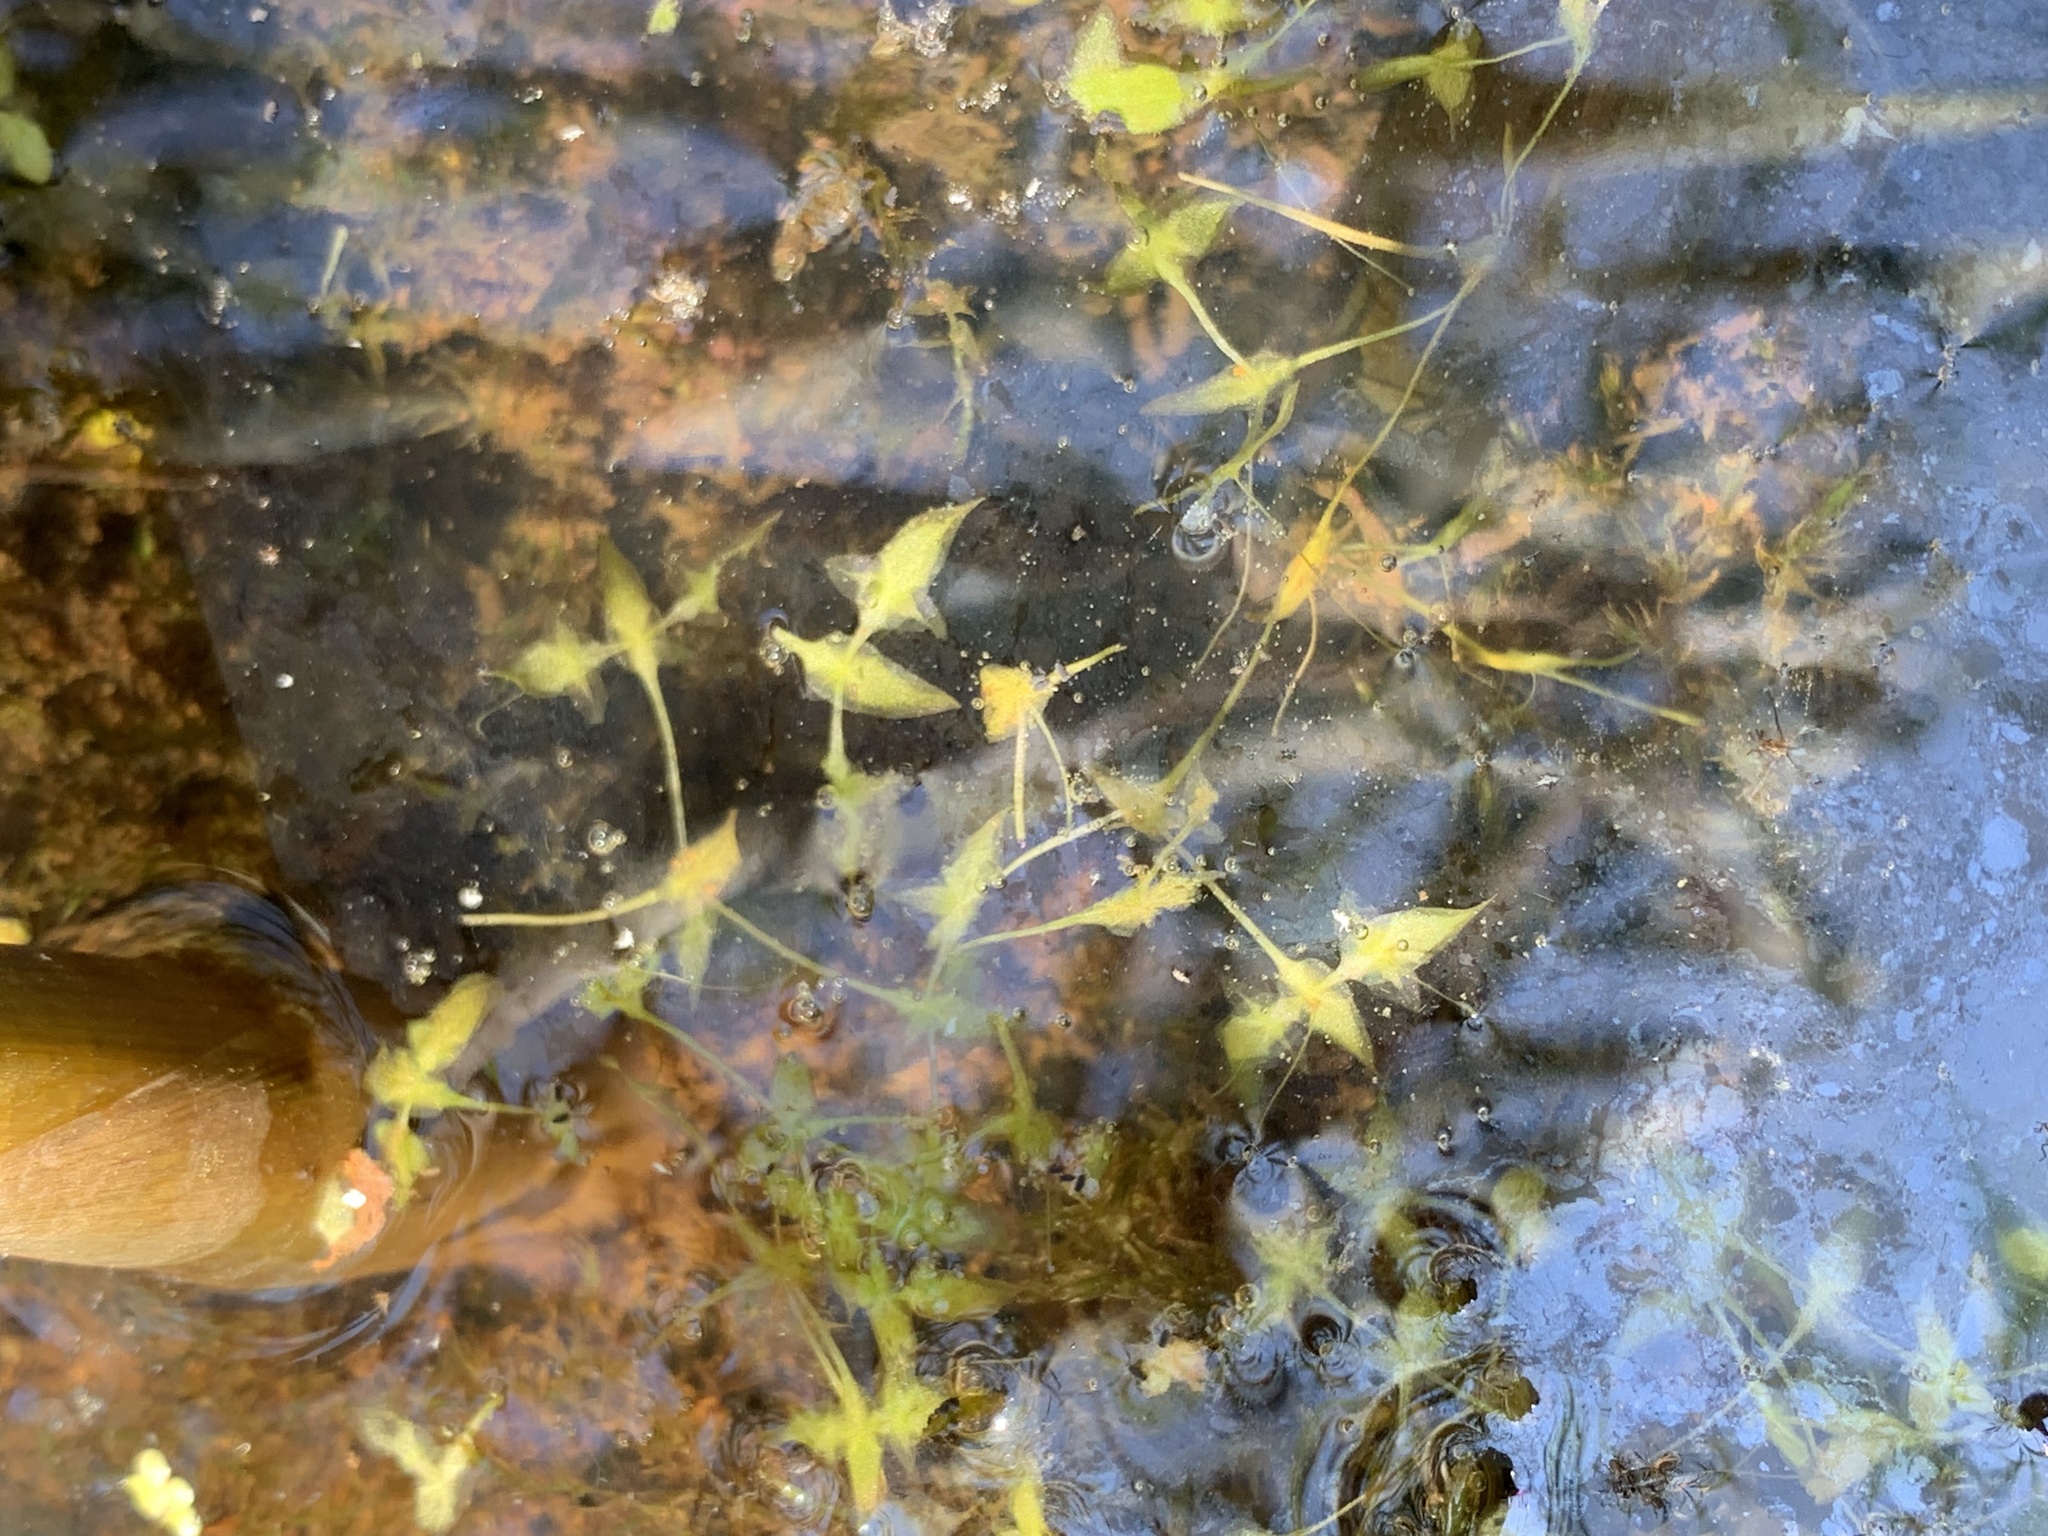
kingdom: Plantae
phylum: Tracheophyta
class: Liliopsida
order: Alismatales
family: Araceae
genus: Lemna
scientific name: Lemna trisulca
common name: Ivy-leaved duckweed
